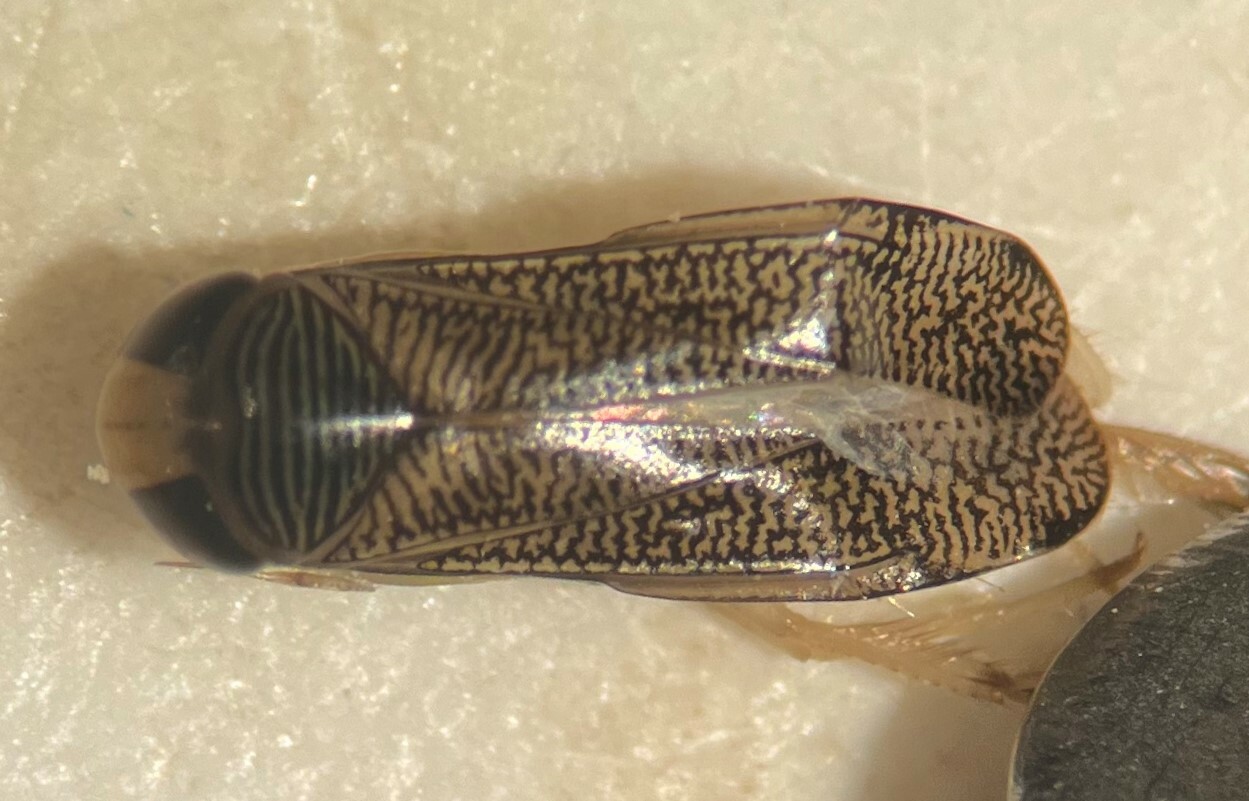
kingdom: Animalia
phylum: Arthropoda
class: Insecta
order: Hemiptera
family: Corixidae
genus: Trichocorixa
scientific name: Trichocorixa louisianae
